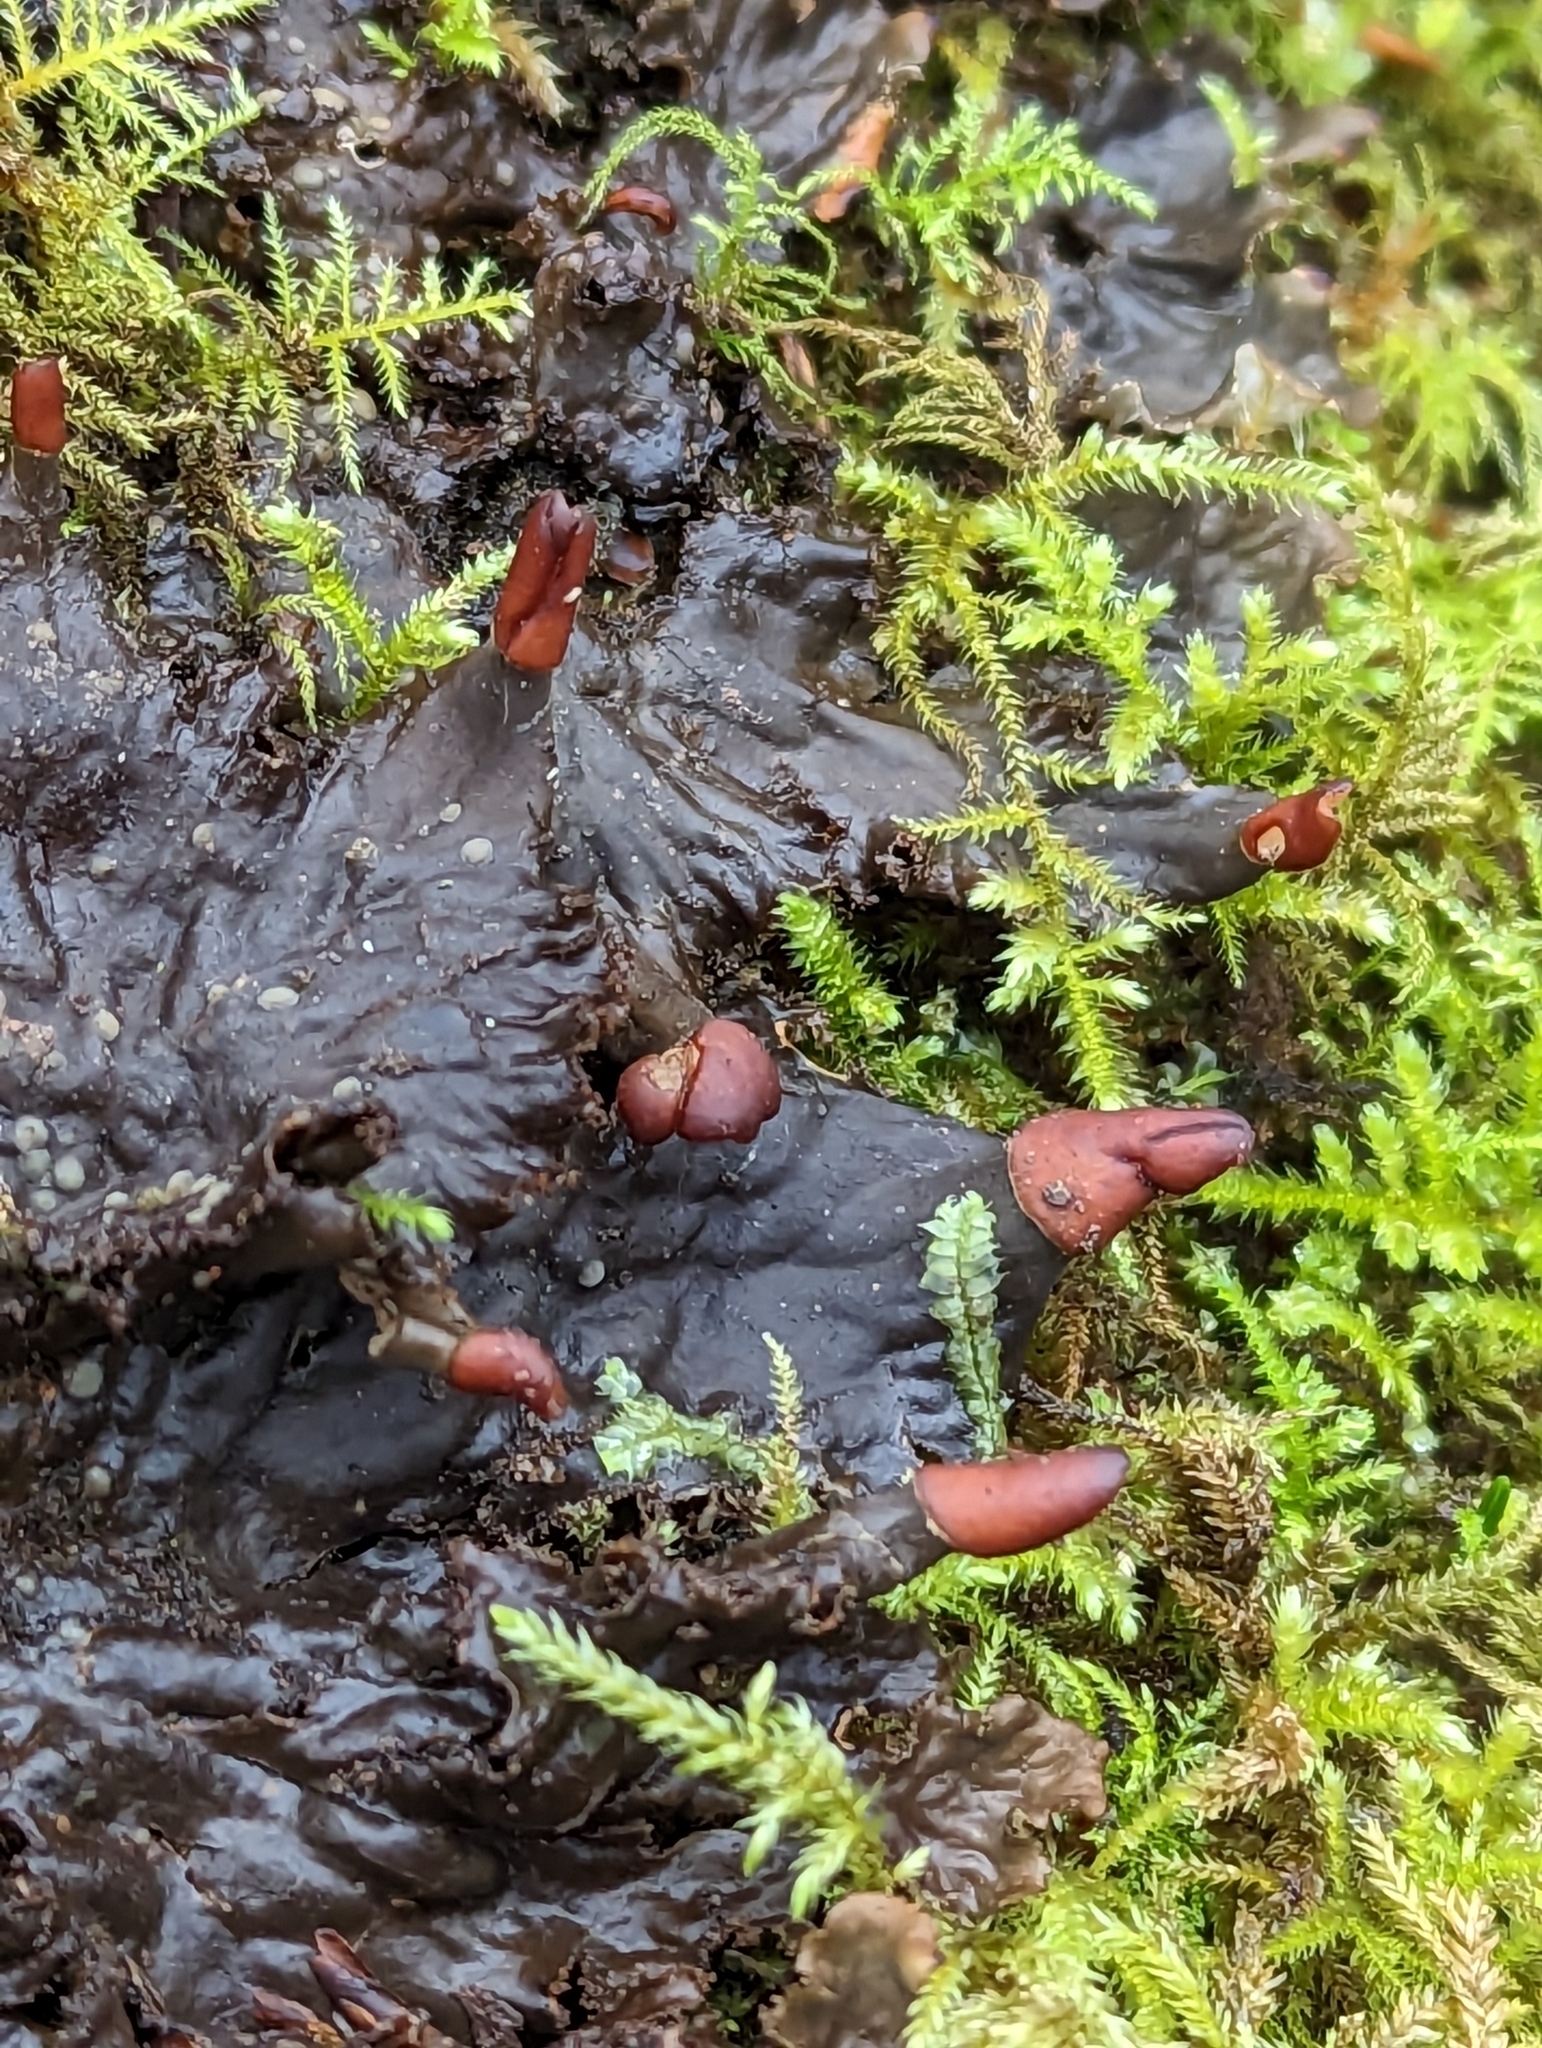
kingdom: Fungi
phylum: Ascomycota
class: Lecanoromycetes
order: Peltigerales
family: Peltigeraceae
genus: Peltigera
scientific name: Peltigera praetextata
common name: Scaly dog-lichen
